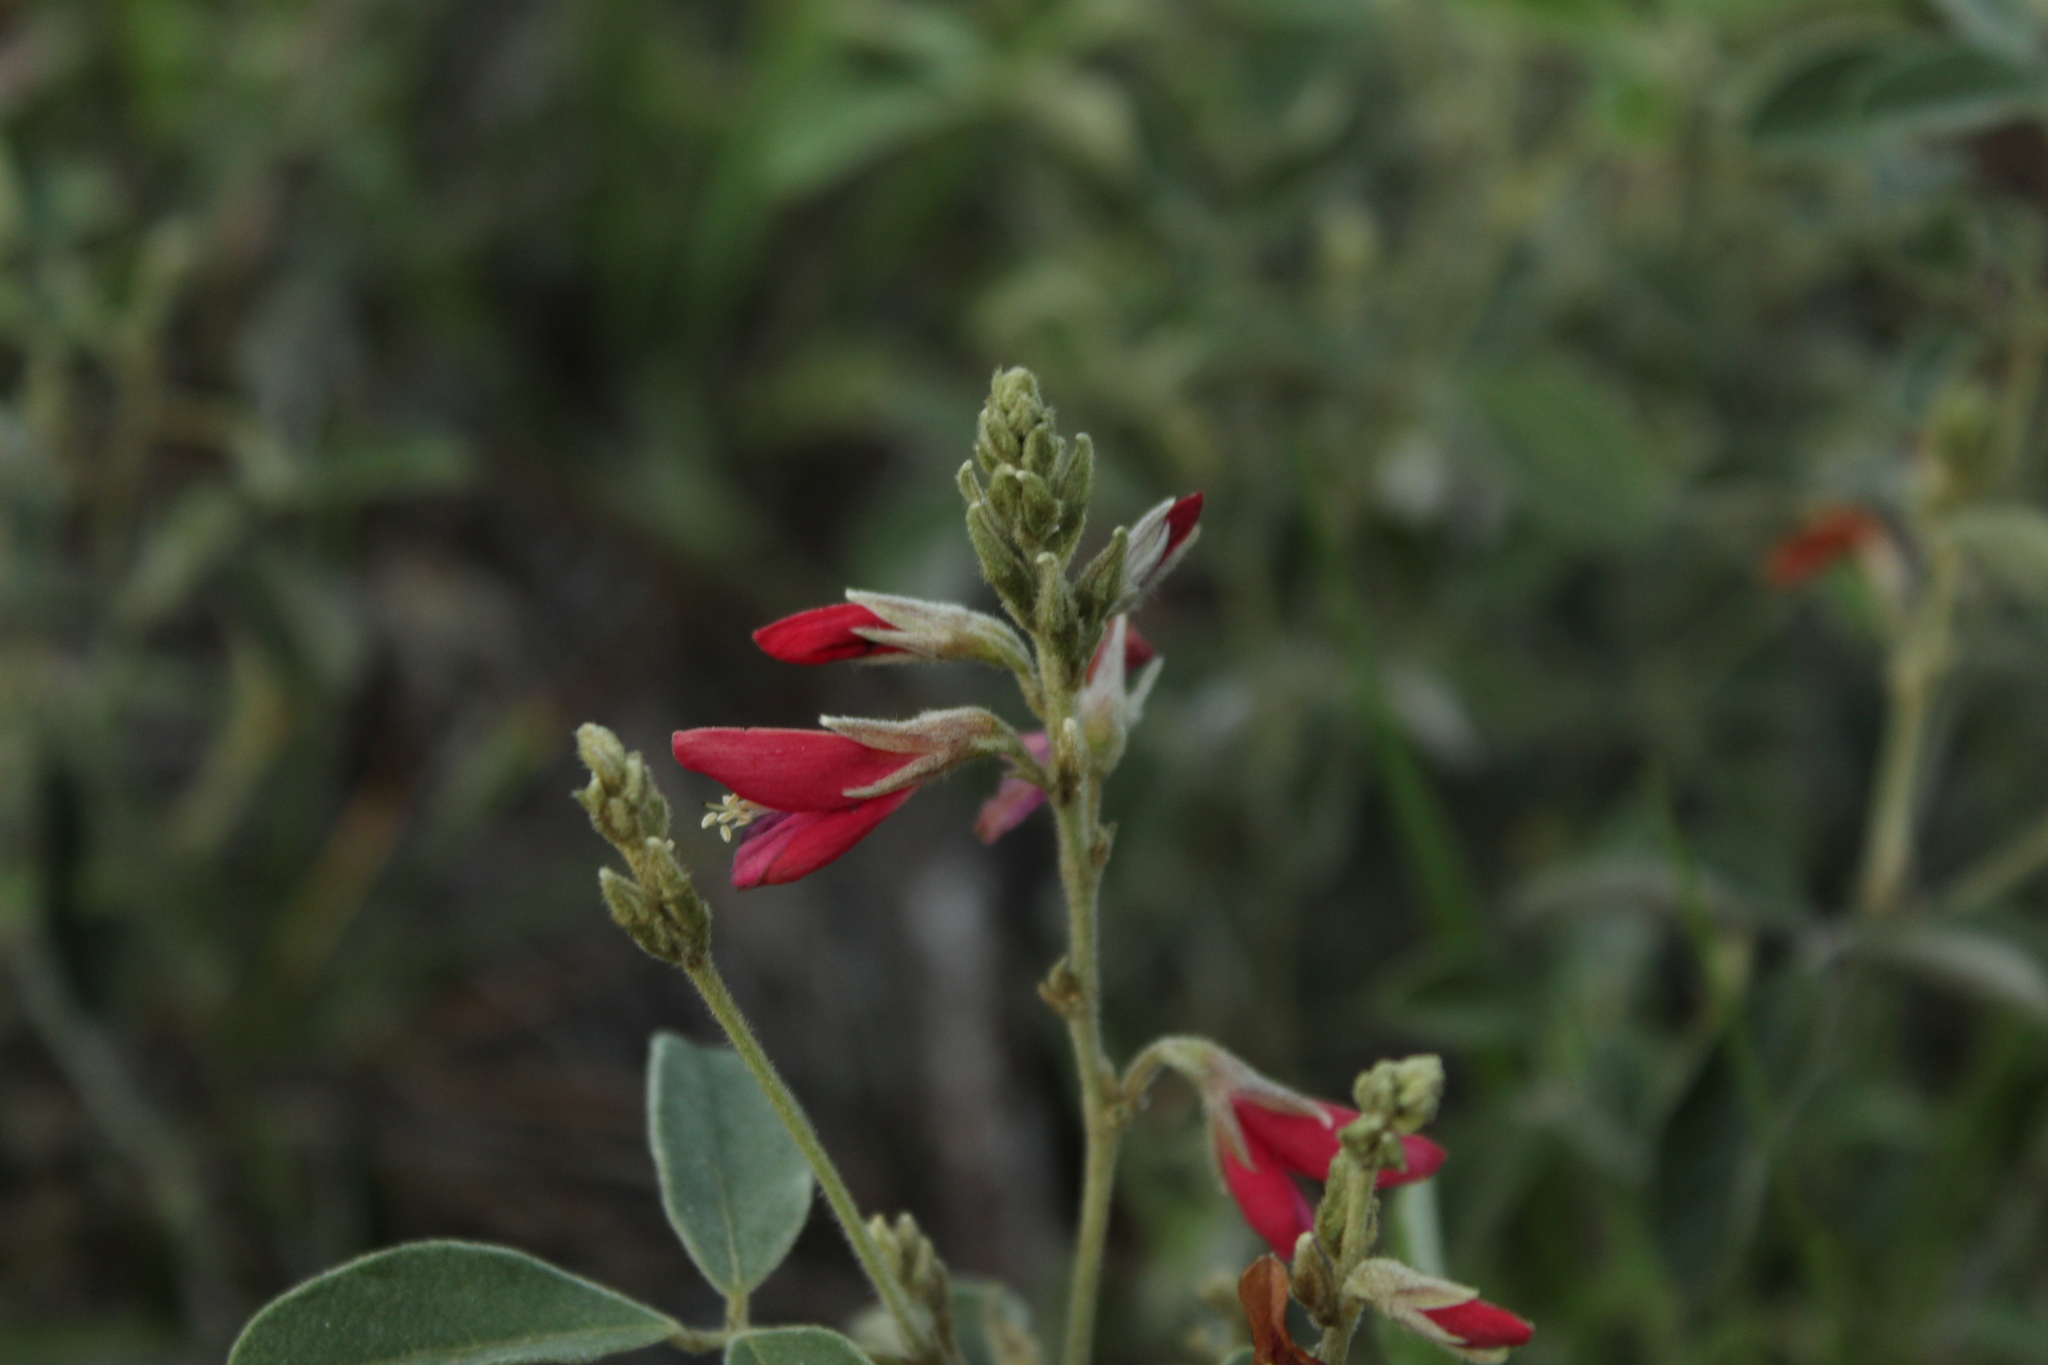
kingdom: Plantae
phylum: Tracheophyta
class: Magnoliopsida
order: Fabales
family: Fabaceae
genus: Galactia
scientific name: Galactia lindenii
